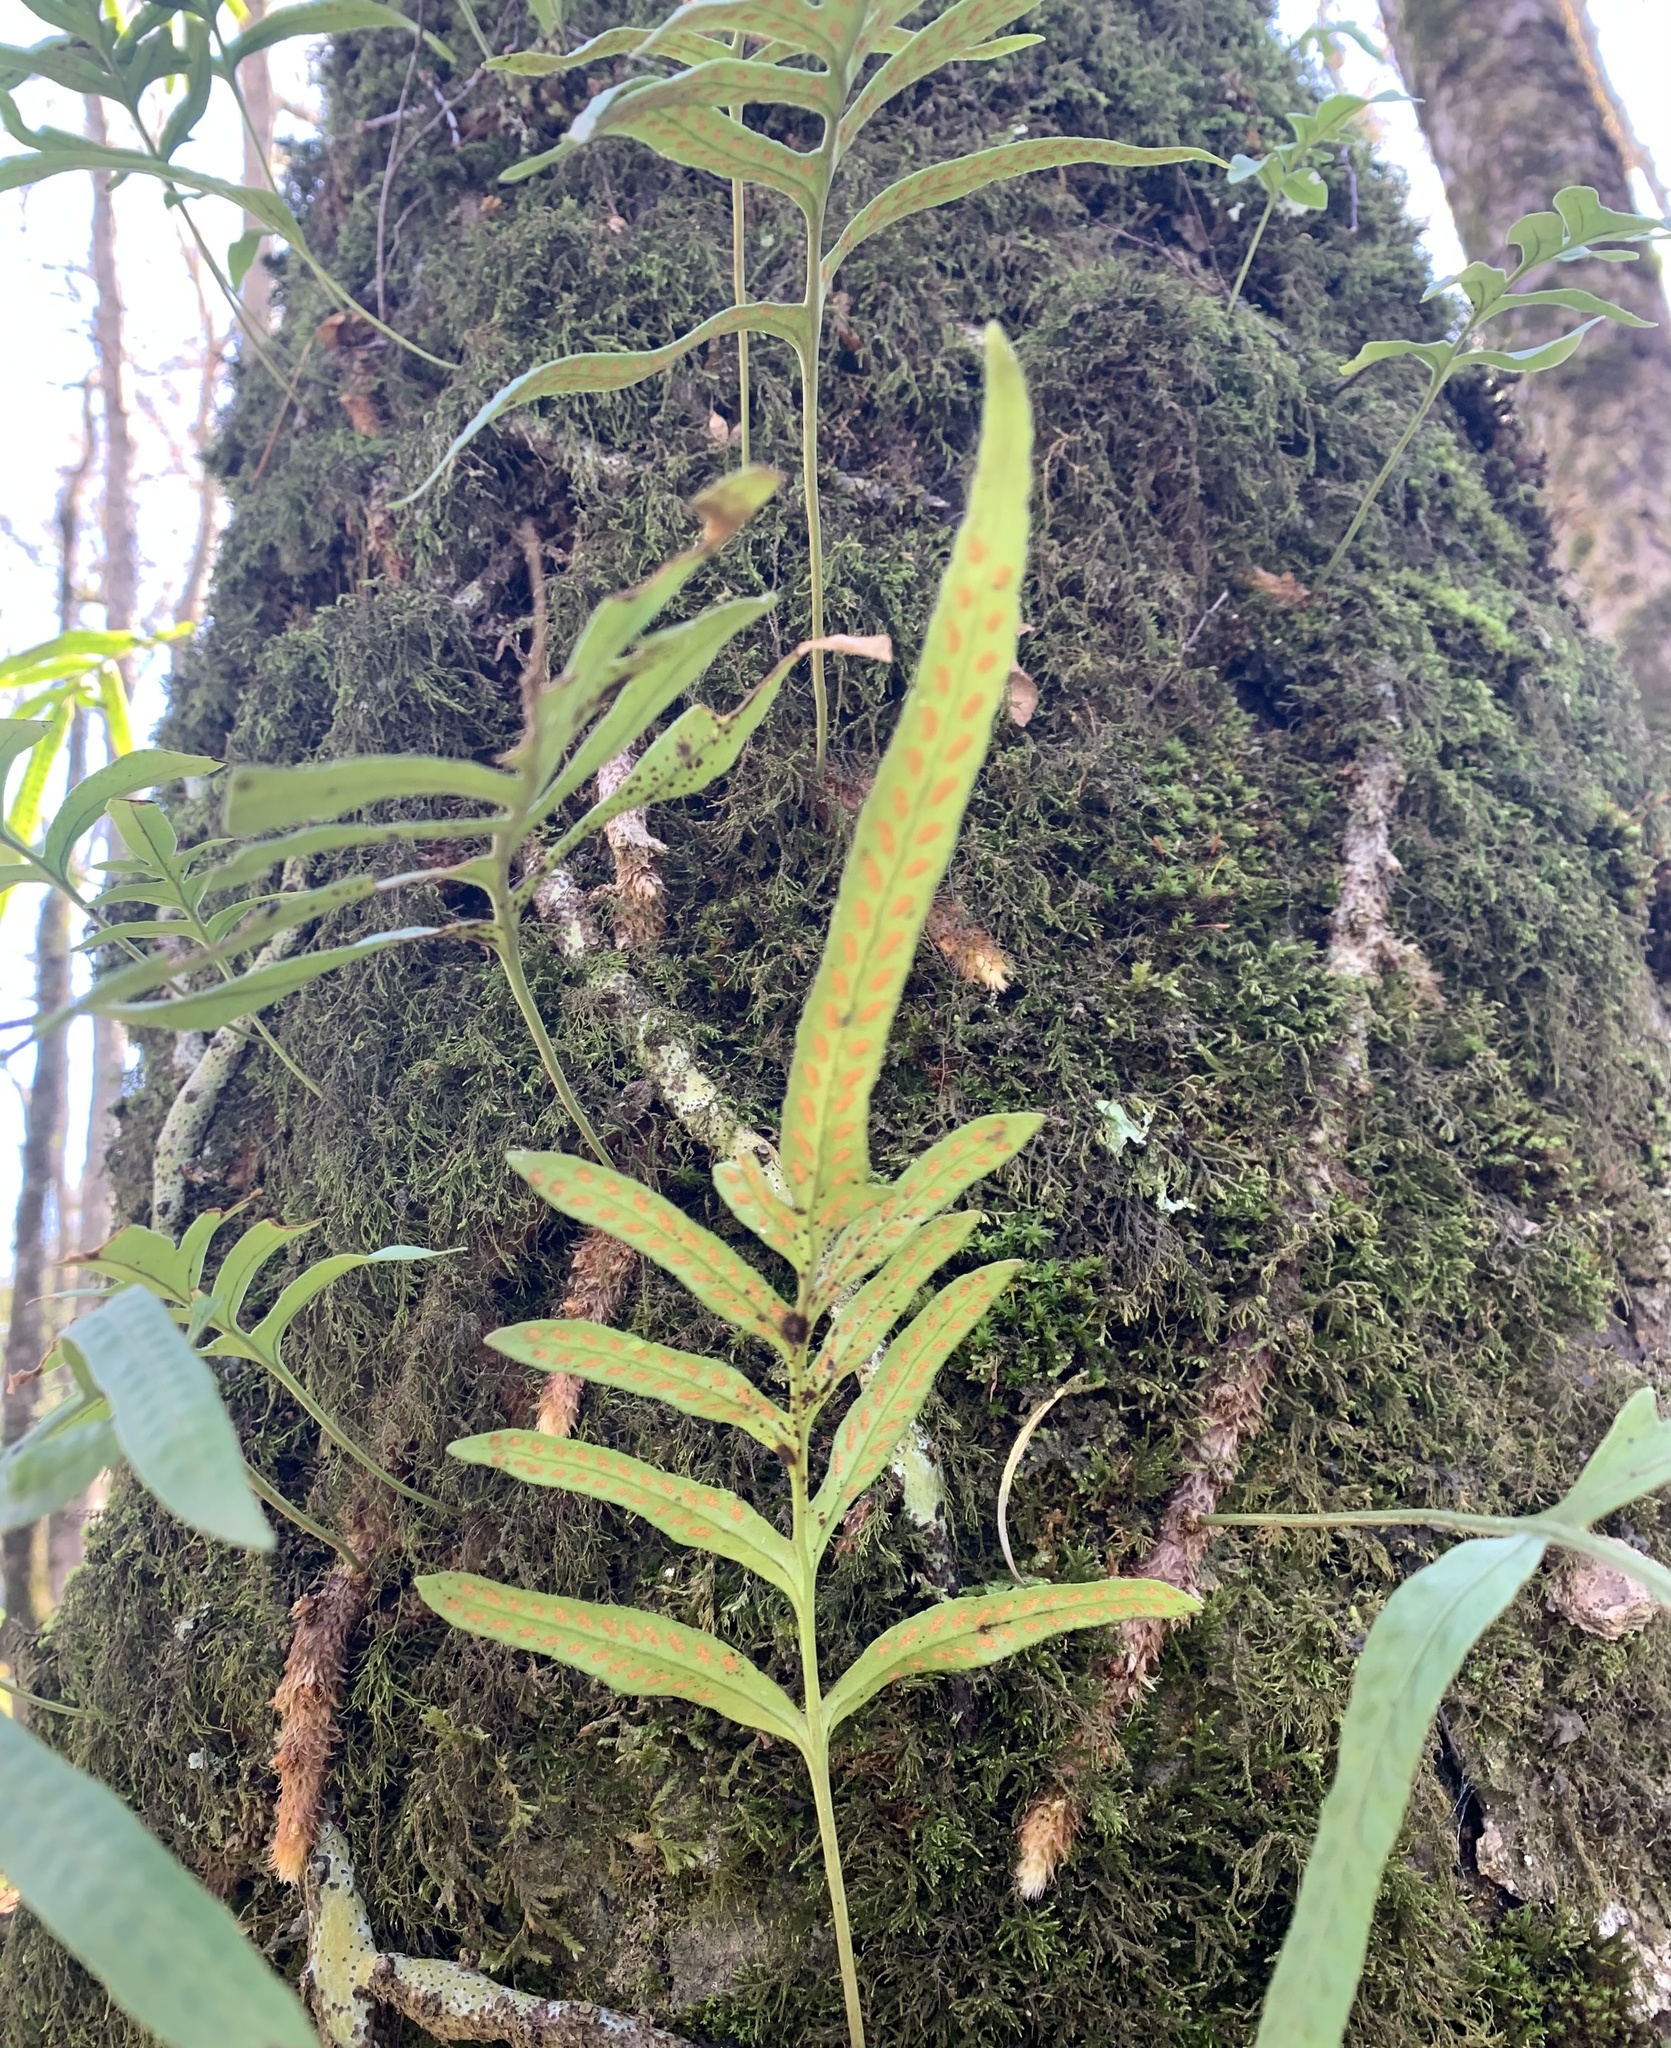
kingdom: Plantae
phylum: Tracheophyta
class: Polypodiopsida
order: Polypodiales
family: Polypodiaceae
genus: Synammia
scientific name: Synammia feuillei
